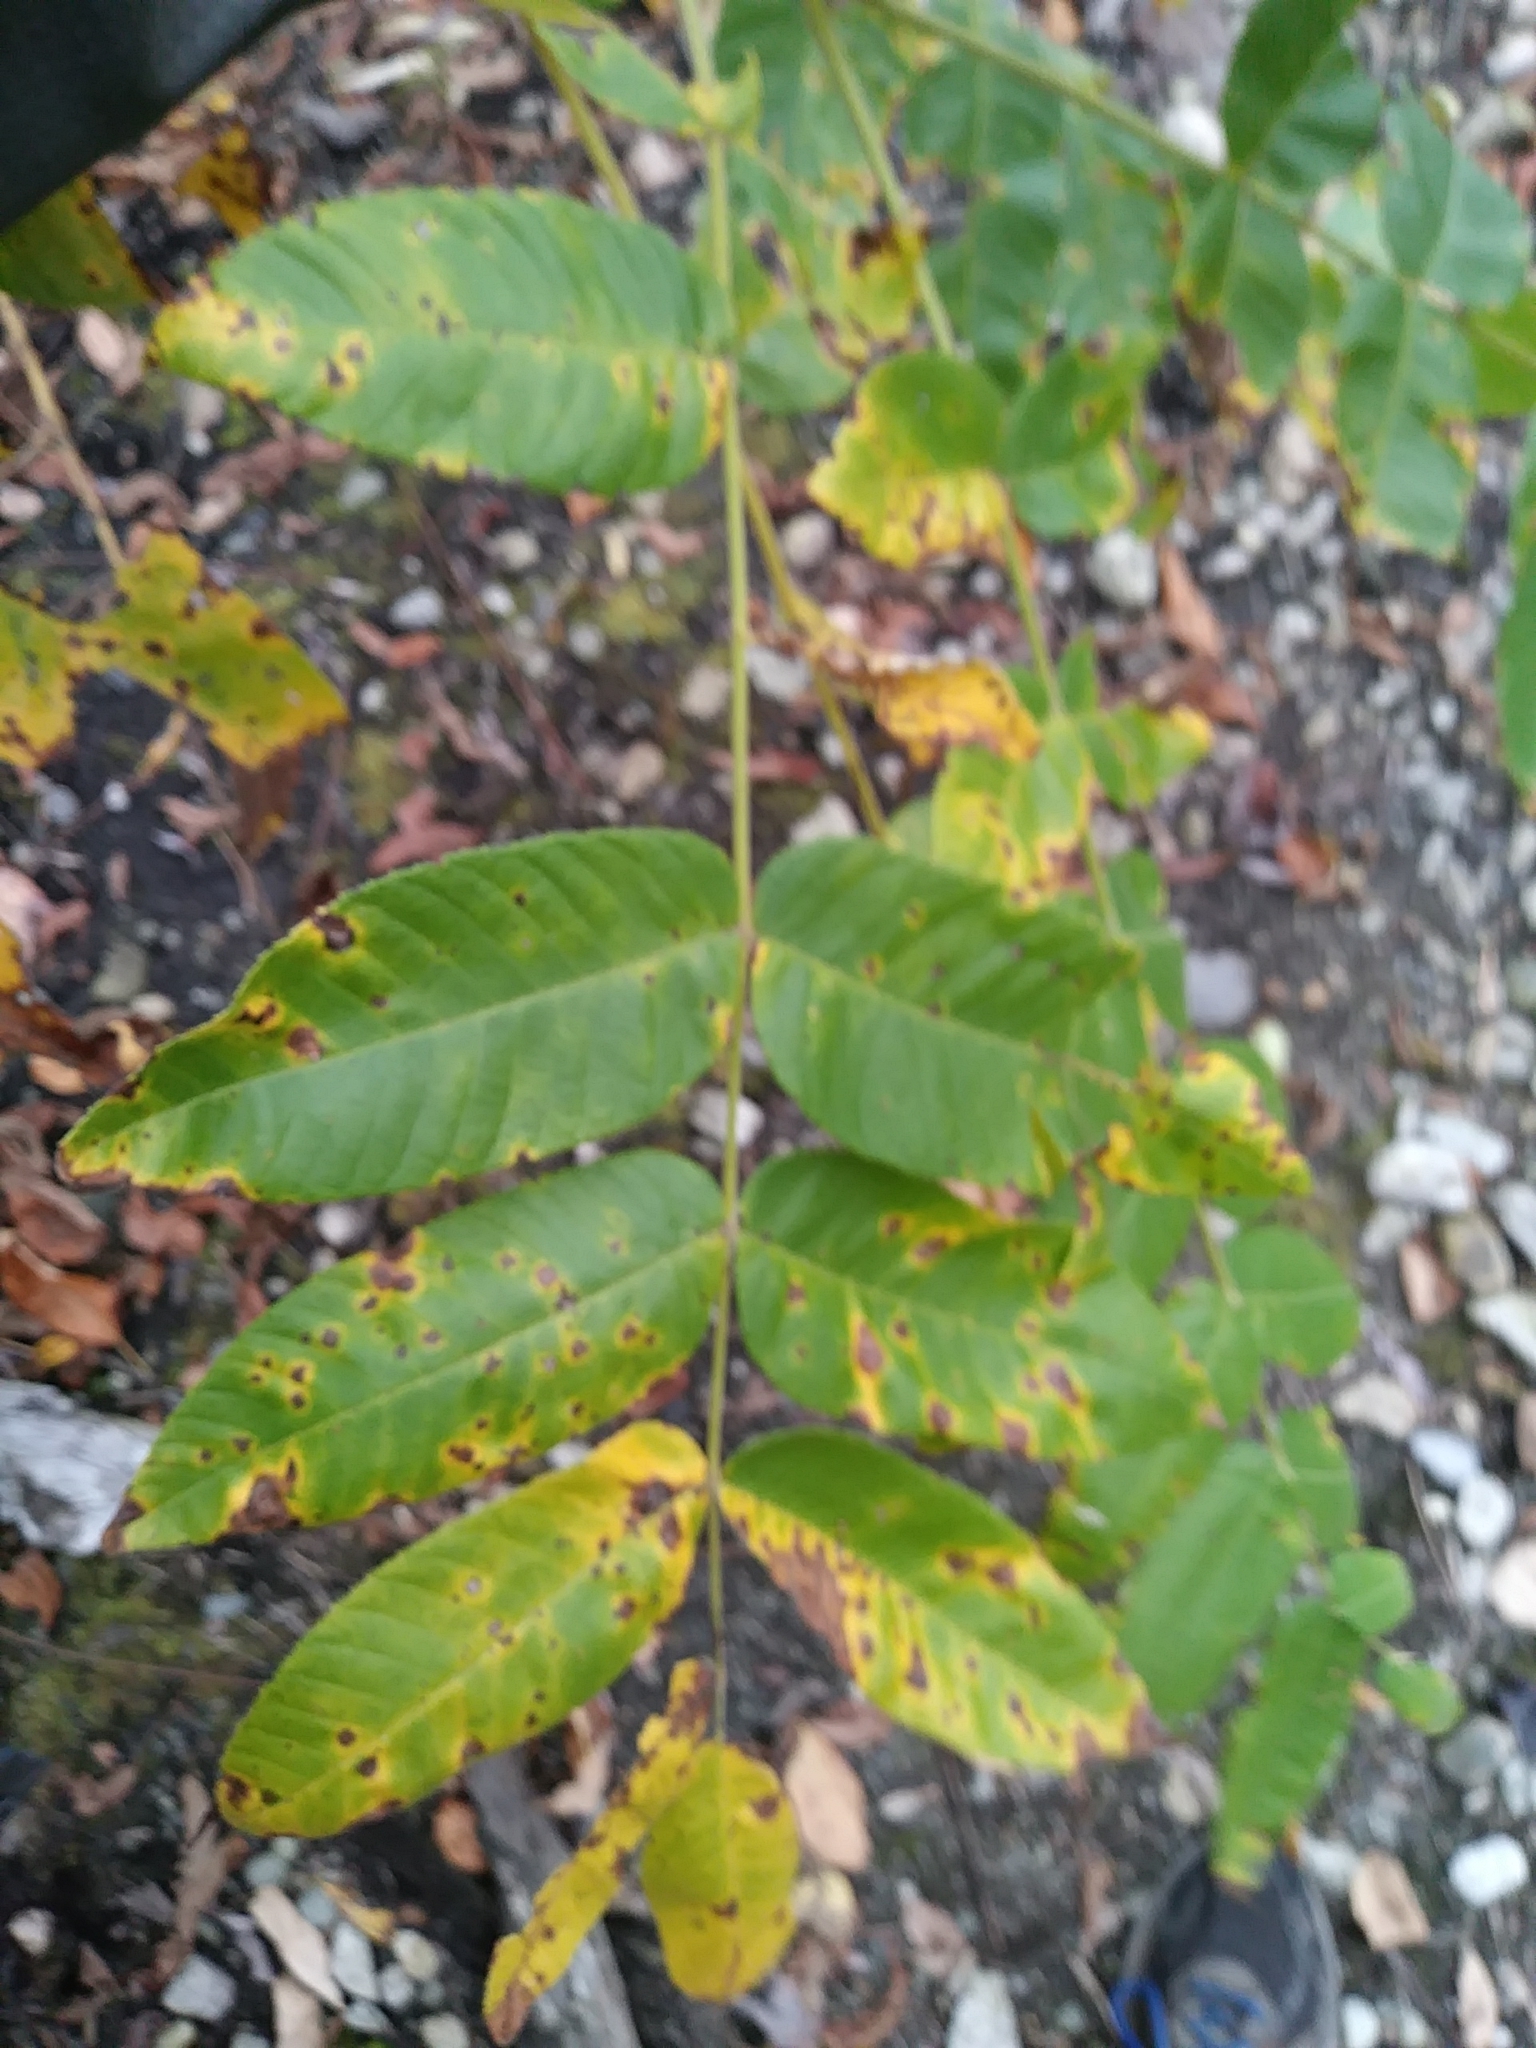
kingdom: Plantae
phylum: Tracheophyta
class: Magnoliopsida
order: Fagales
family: Juglandaceae
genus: Juglans
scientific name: Juglans cinerea
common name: Butternut
